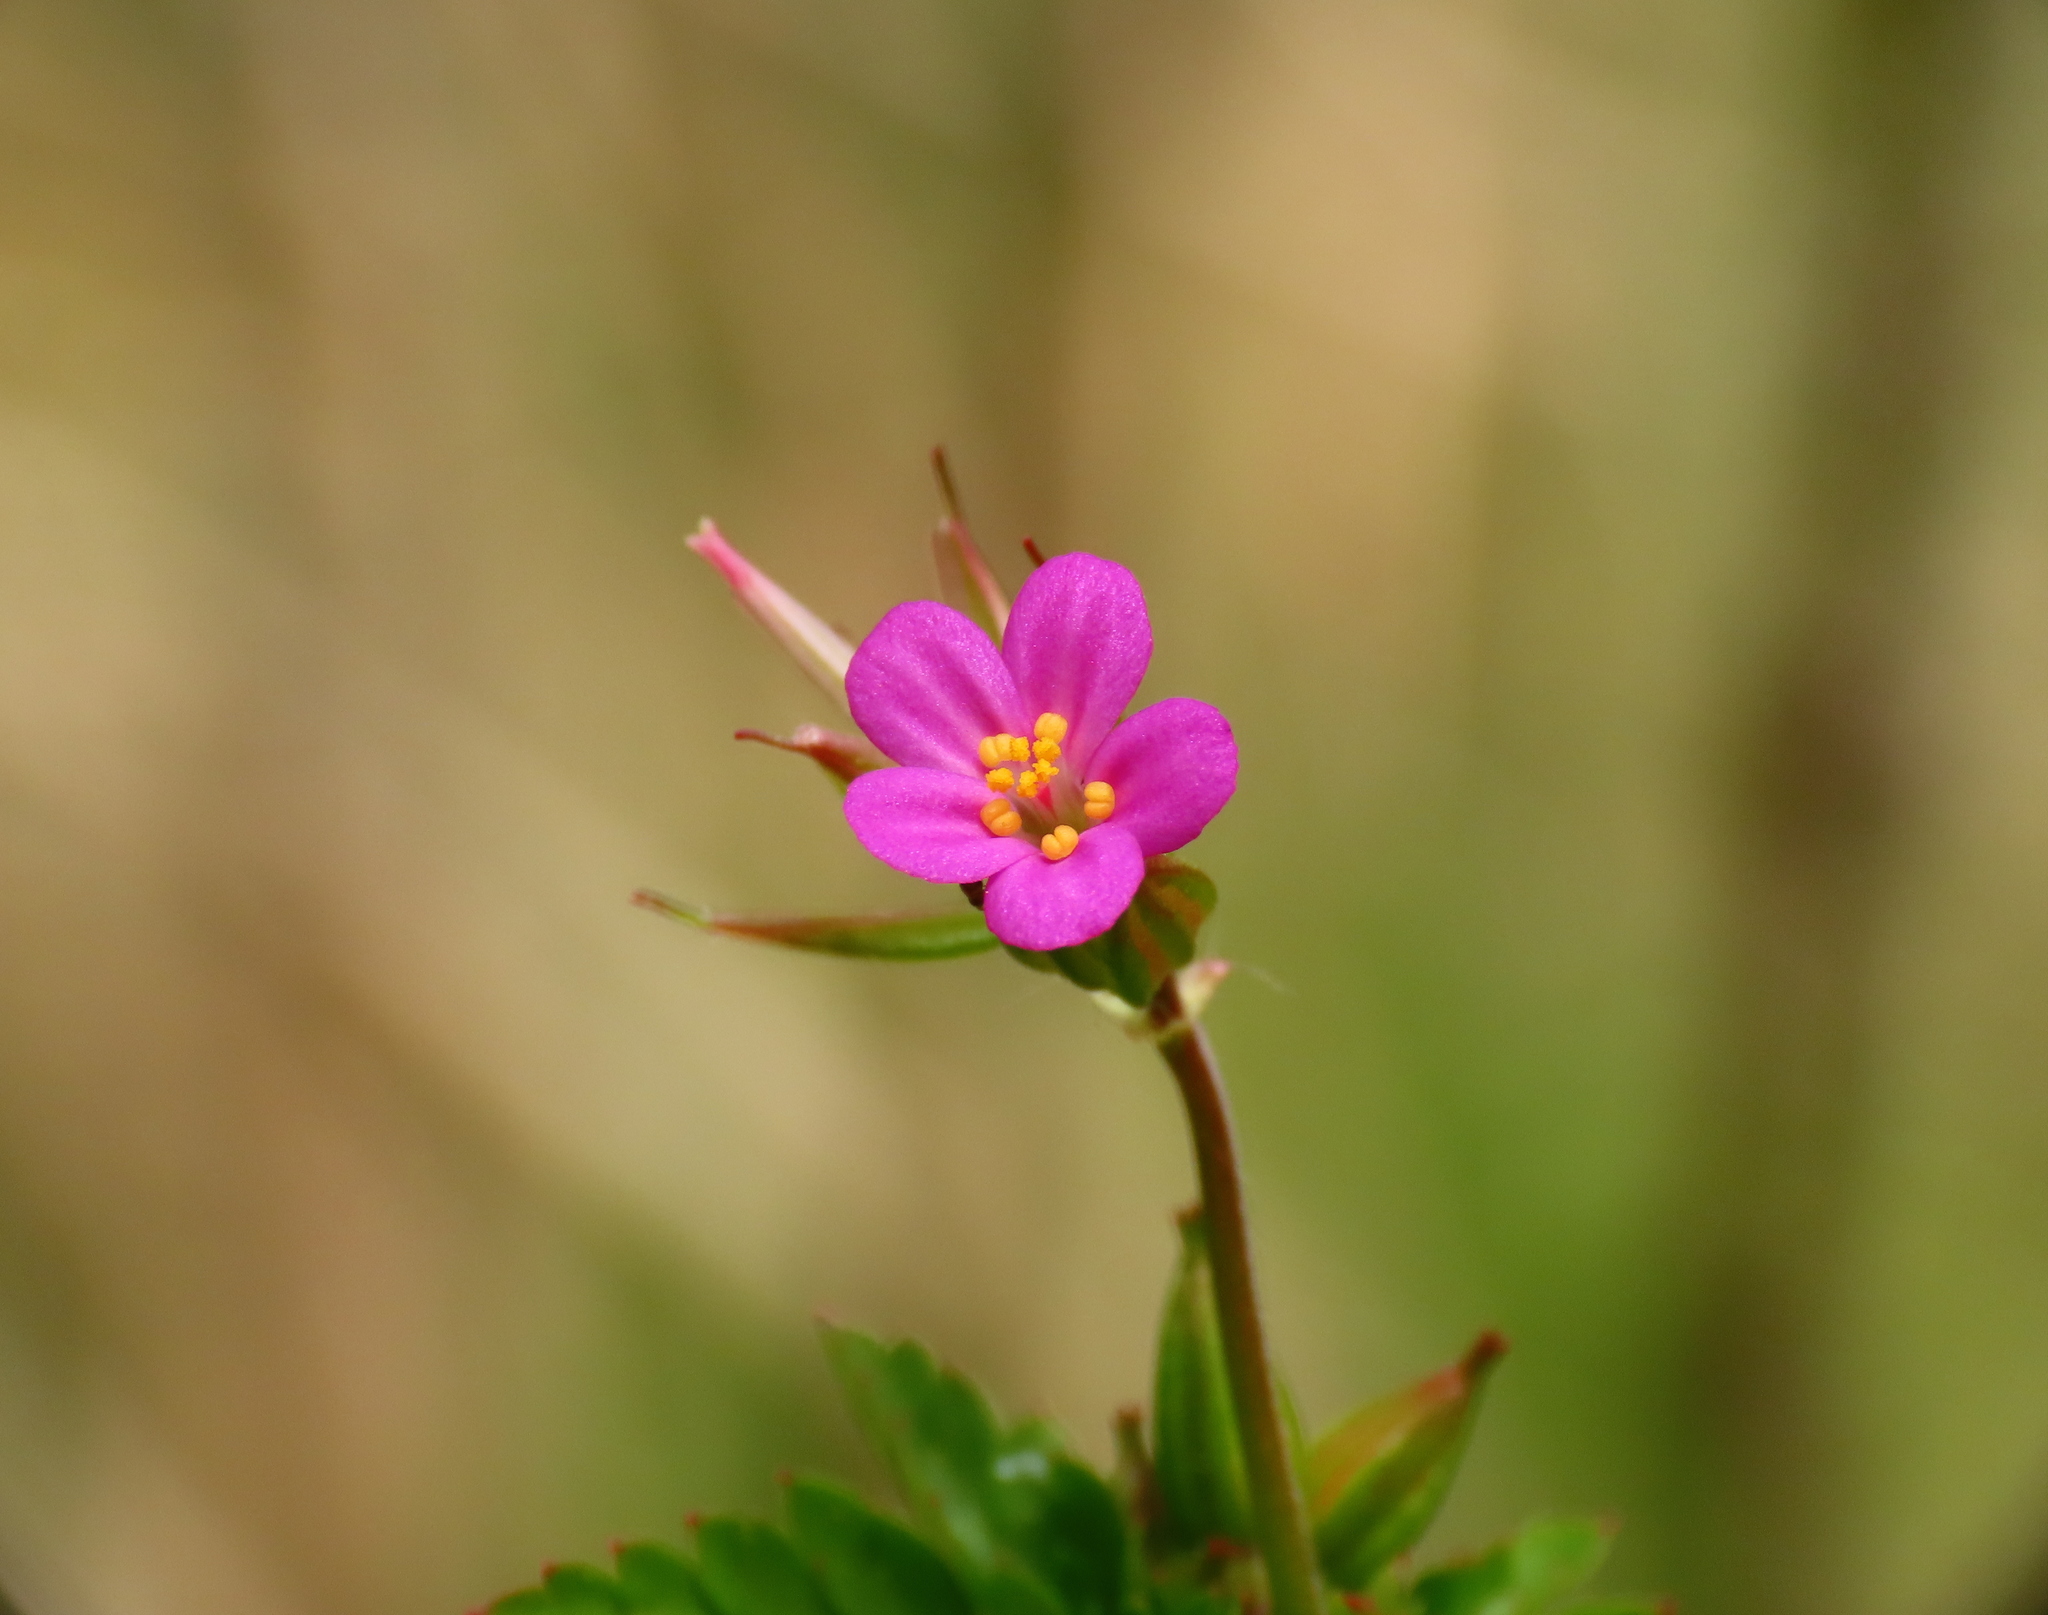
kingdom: Plantae
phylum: Tracheophyta
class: Magnoliopsida
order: Geraniales
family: Geraniaceae
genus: Geranium
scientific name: Geranium purpureum
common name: Little-robin
